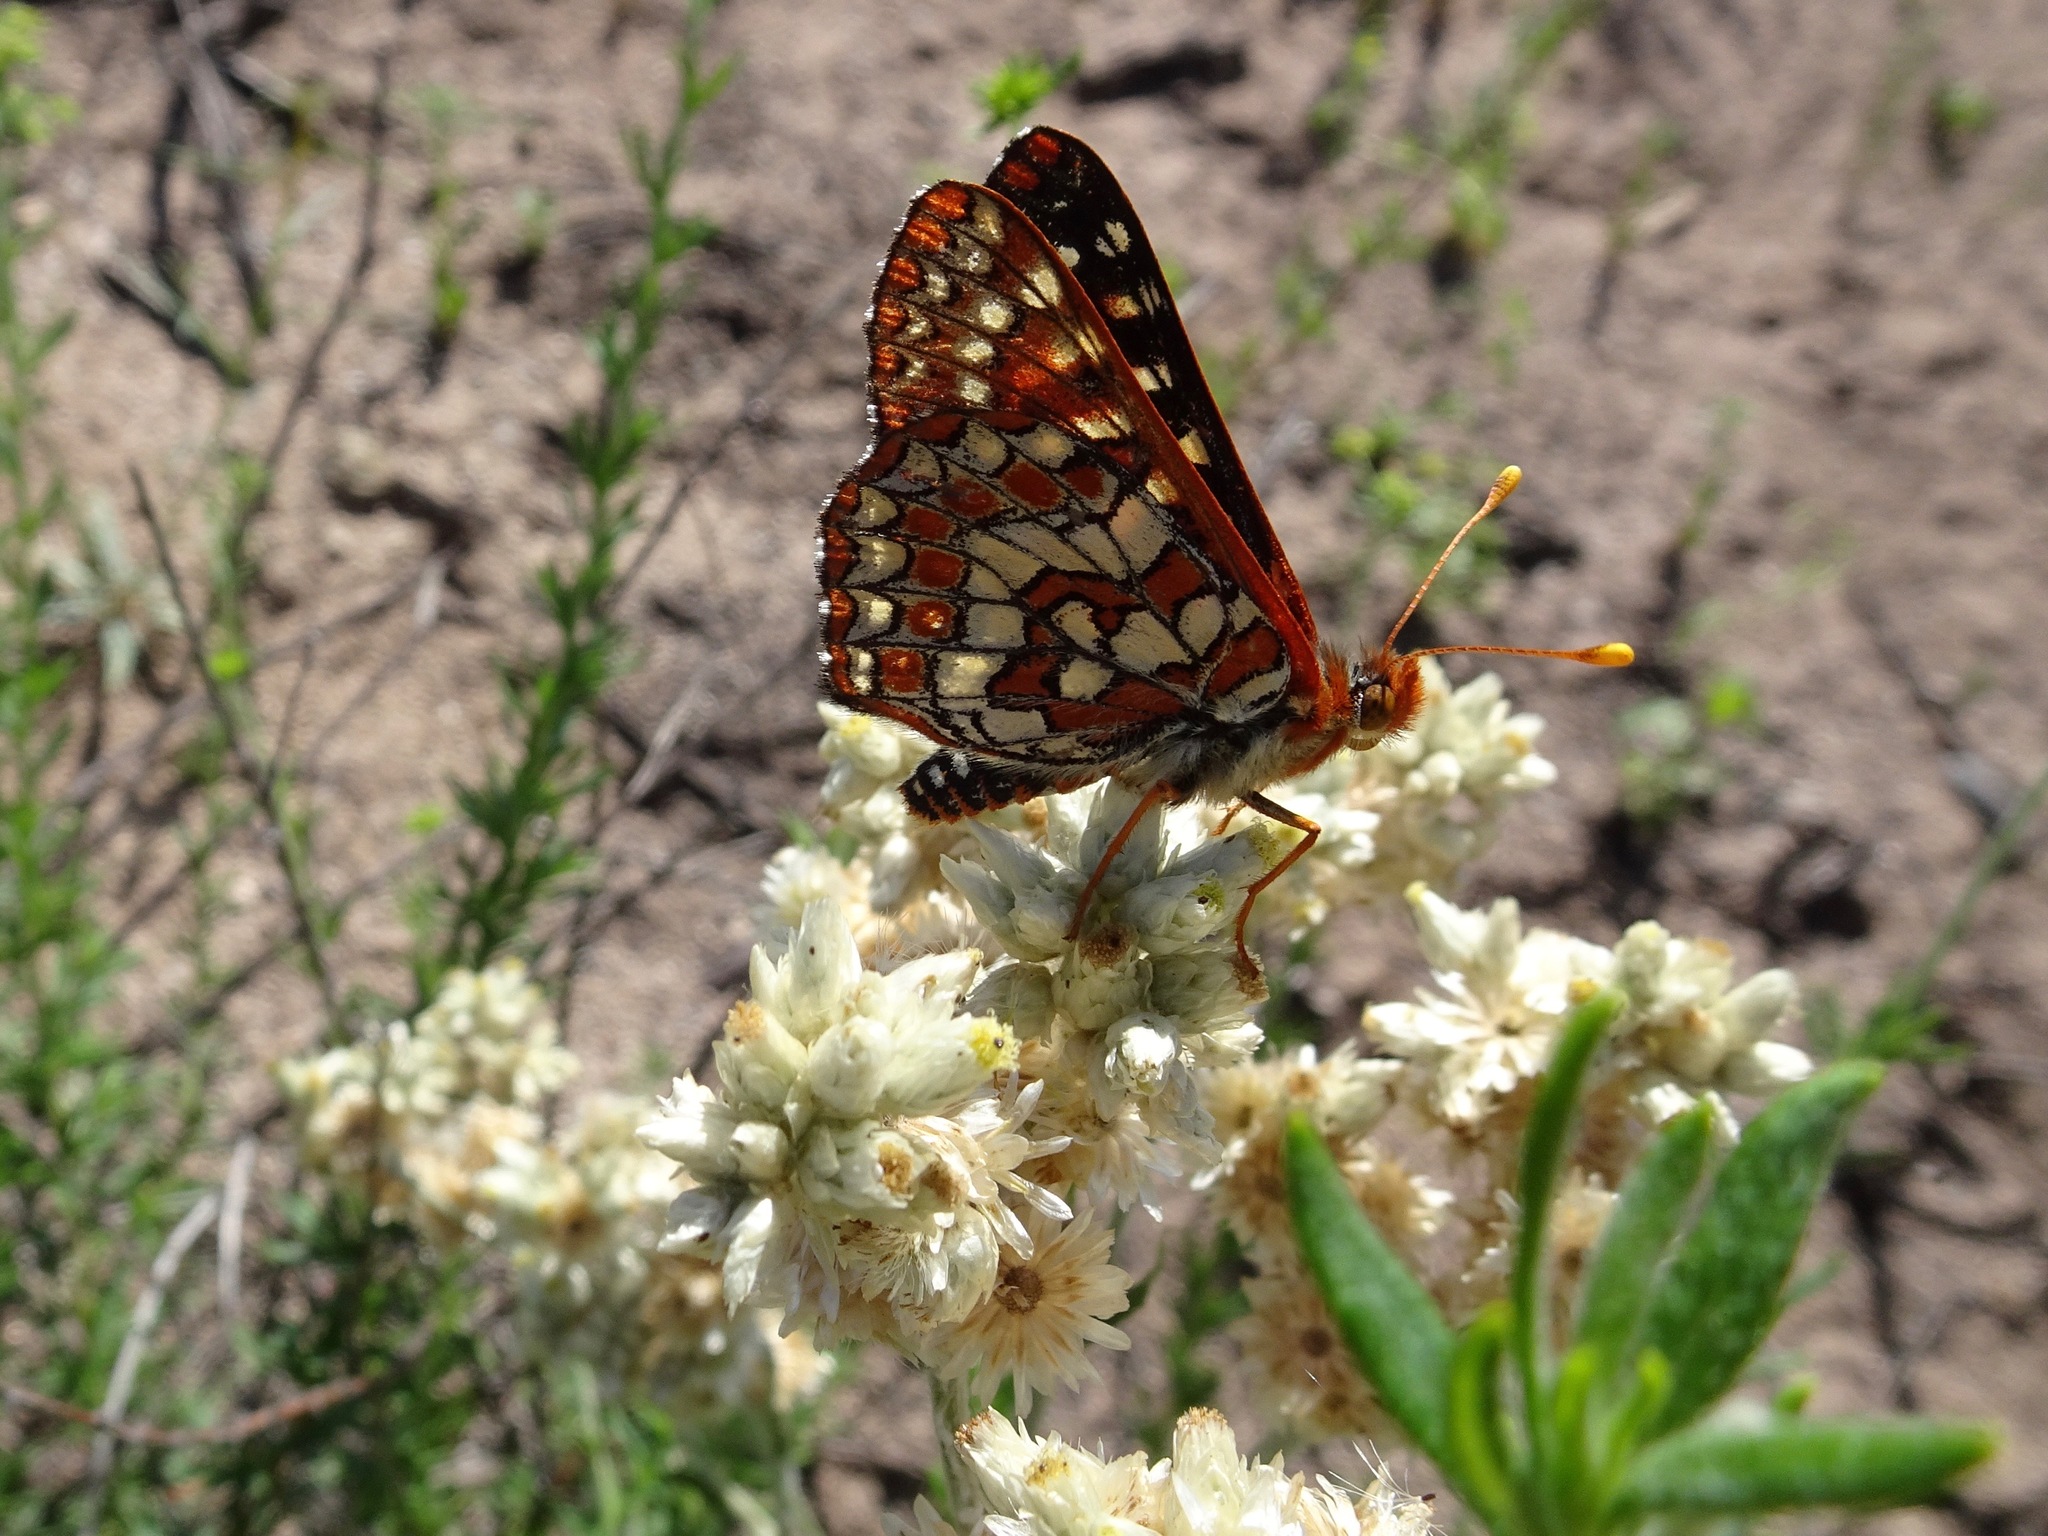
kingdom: Animalia
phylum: Arthropoda
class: Insecta
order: Lepidoptera
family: Nymphalidae
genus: Occidryas
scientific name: Occidryas chalcedona
